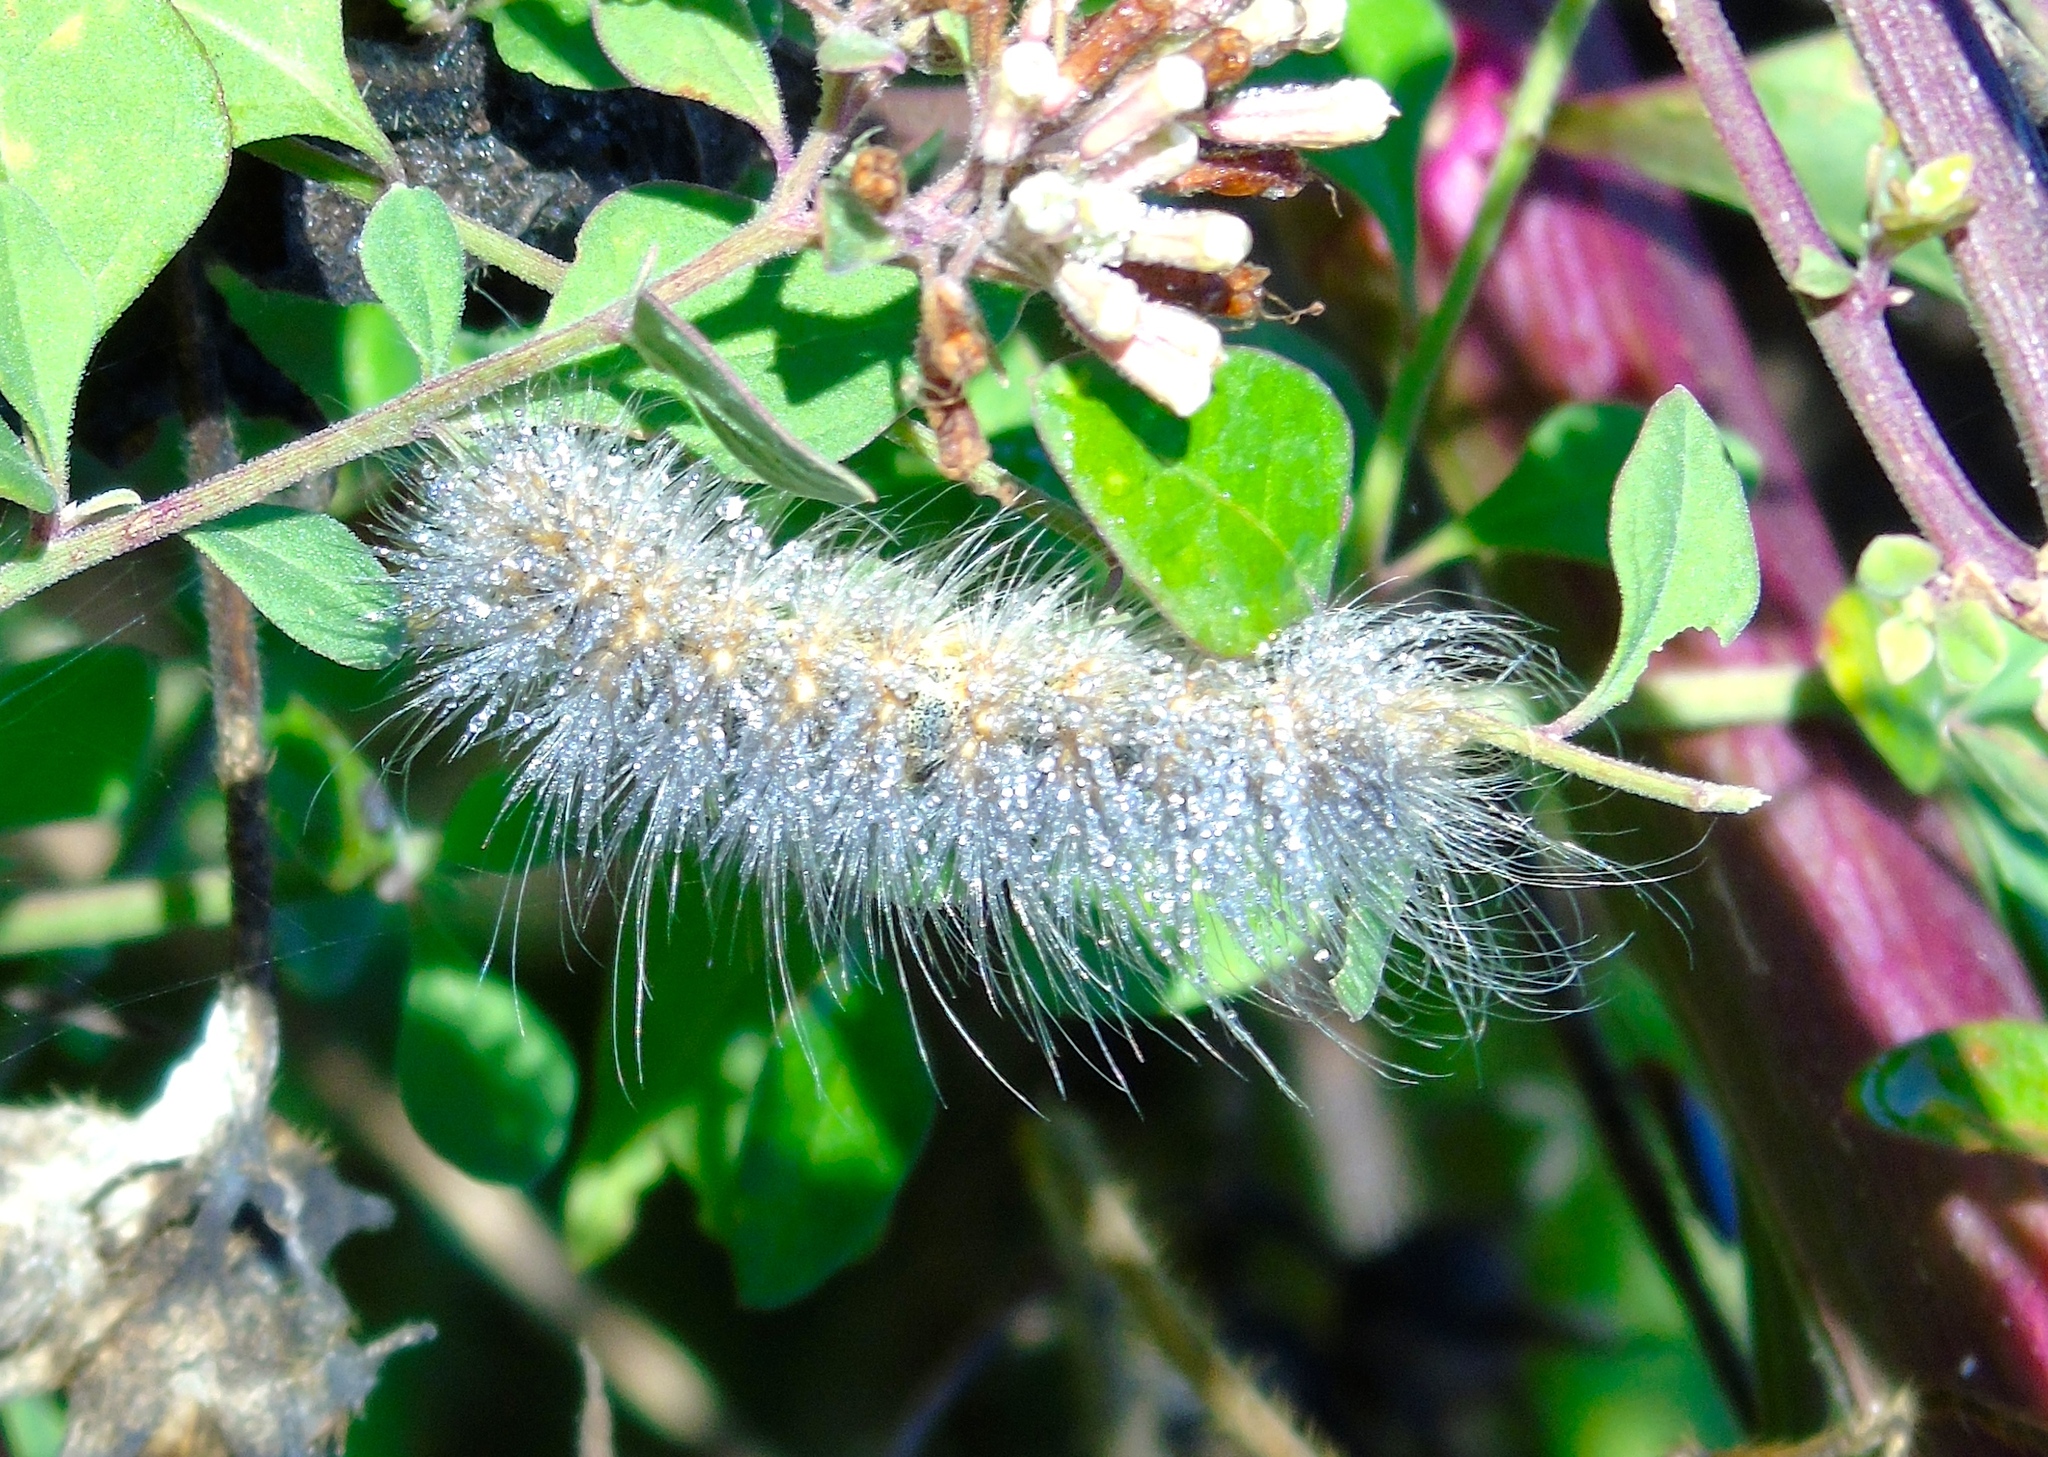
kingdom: Animalia
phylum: Arthropoda
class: Insecta
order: Lepidoptera
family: Erebidae
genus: Estigmene
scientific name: Estigmene acrea
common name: Salt marsh moth
